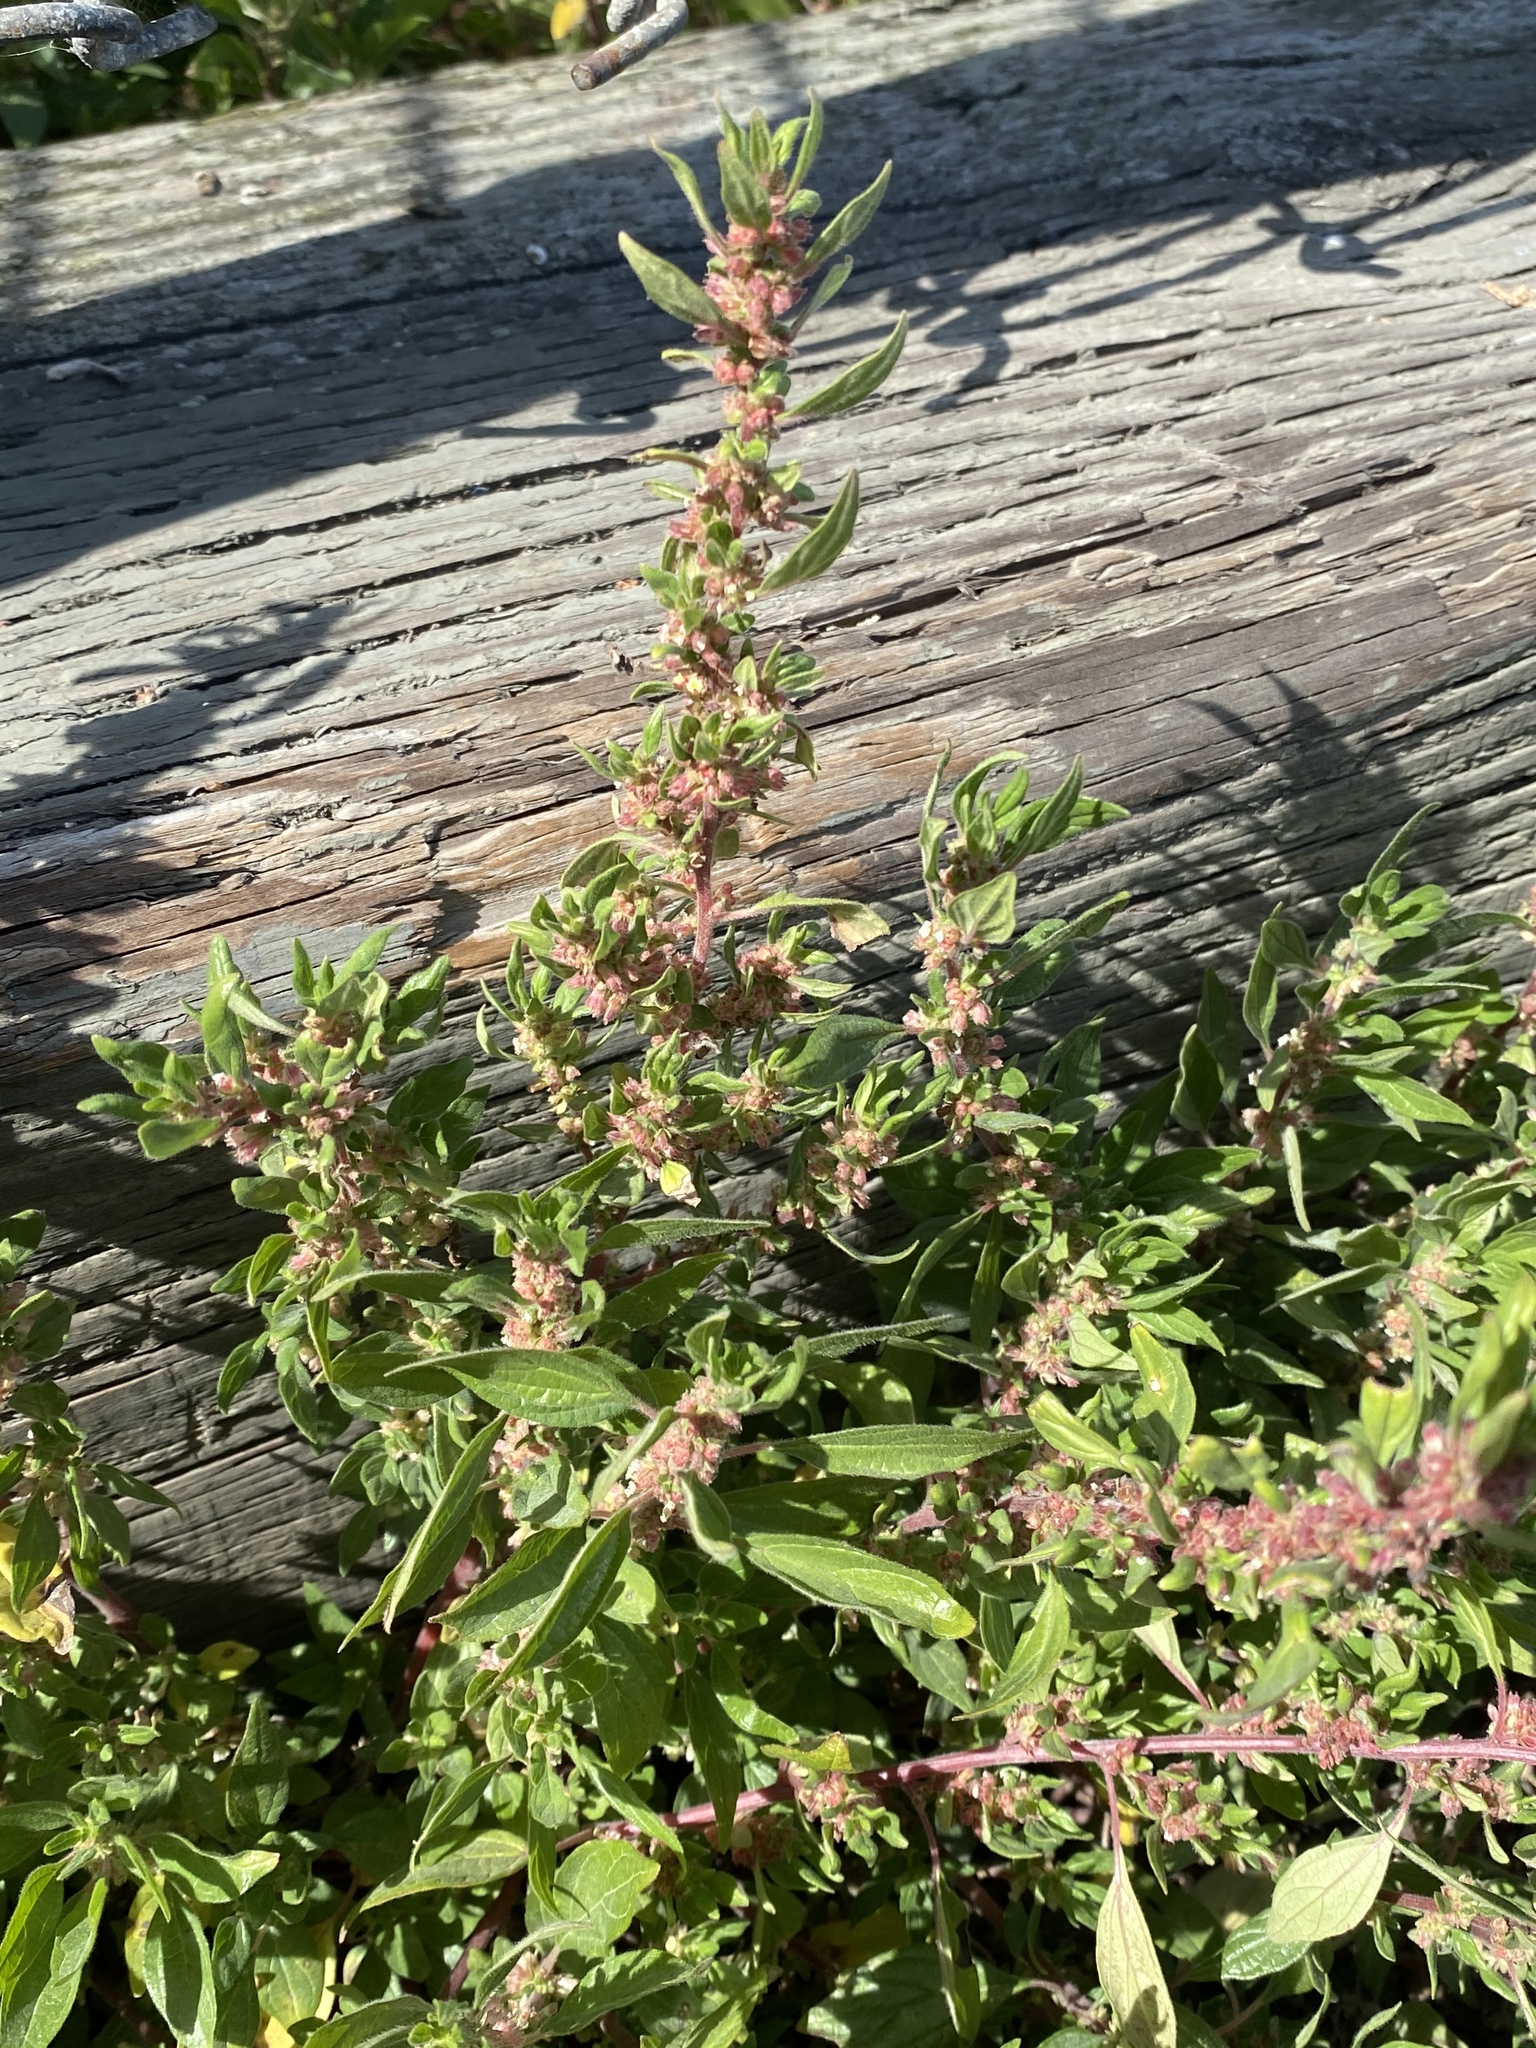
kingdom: Plantae
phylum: Tracheophyta
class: Magnoliopsida
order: Rosales
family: Urticaceae
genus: Parietaria
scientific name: Parietaria judaica
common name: Pellitory-of-the-wall
